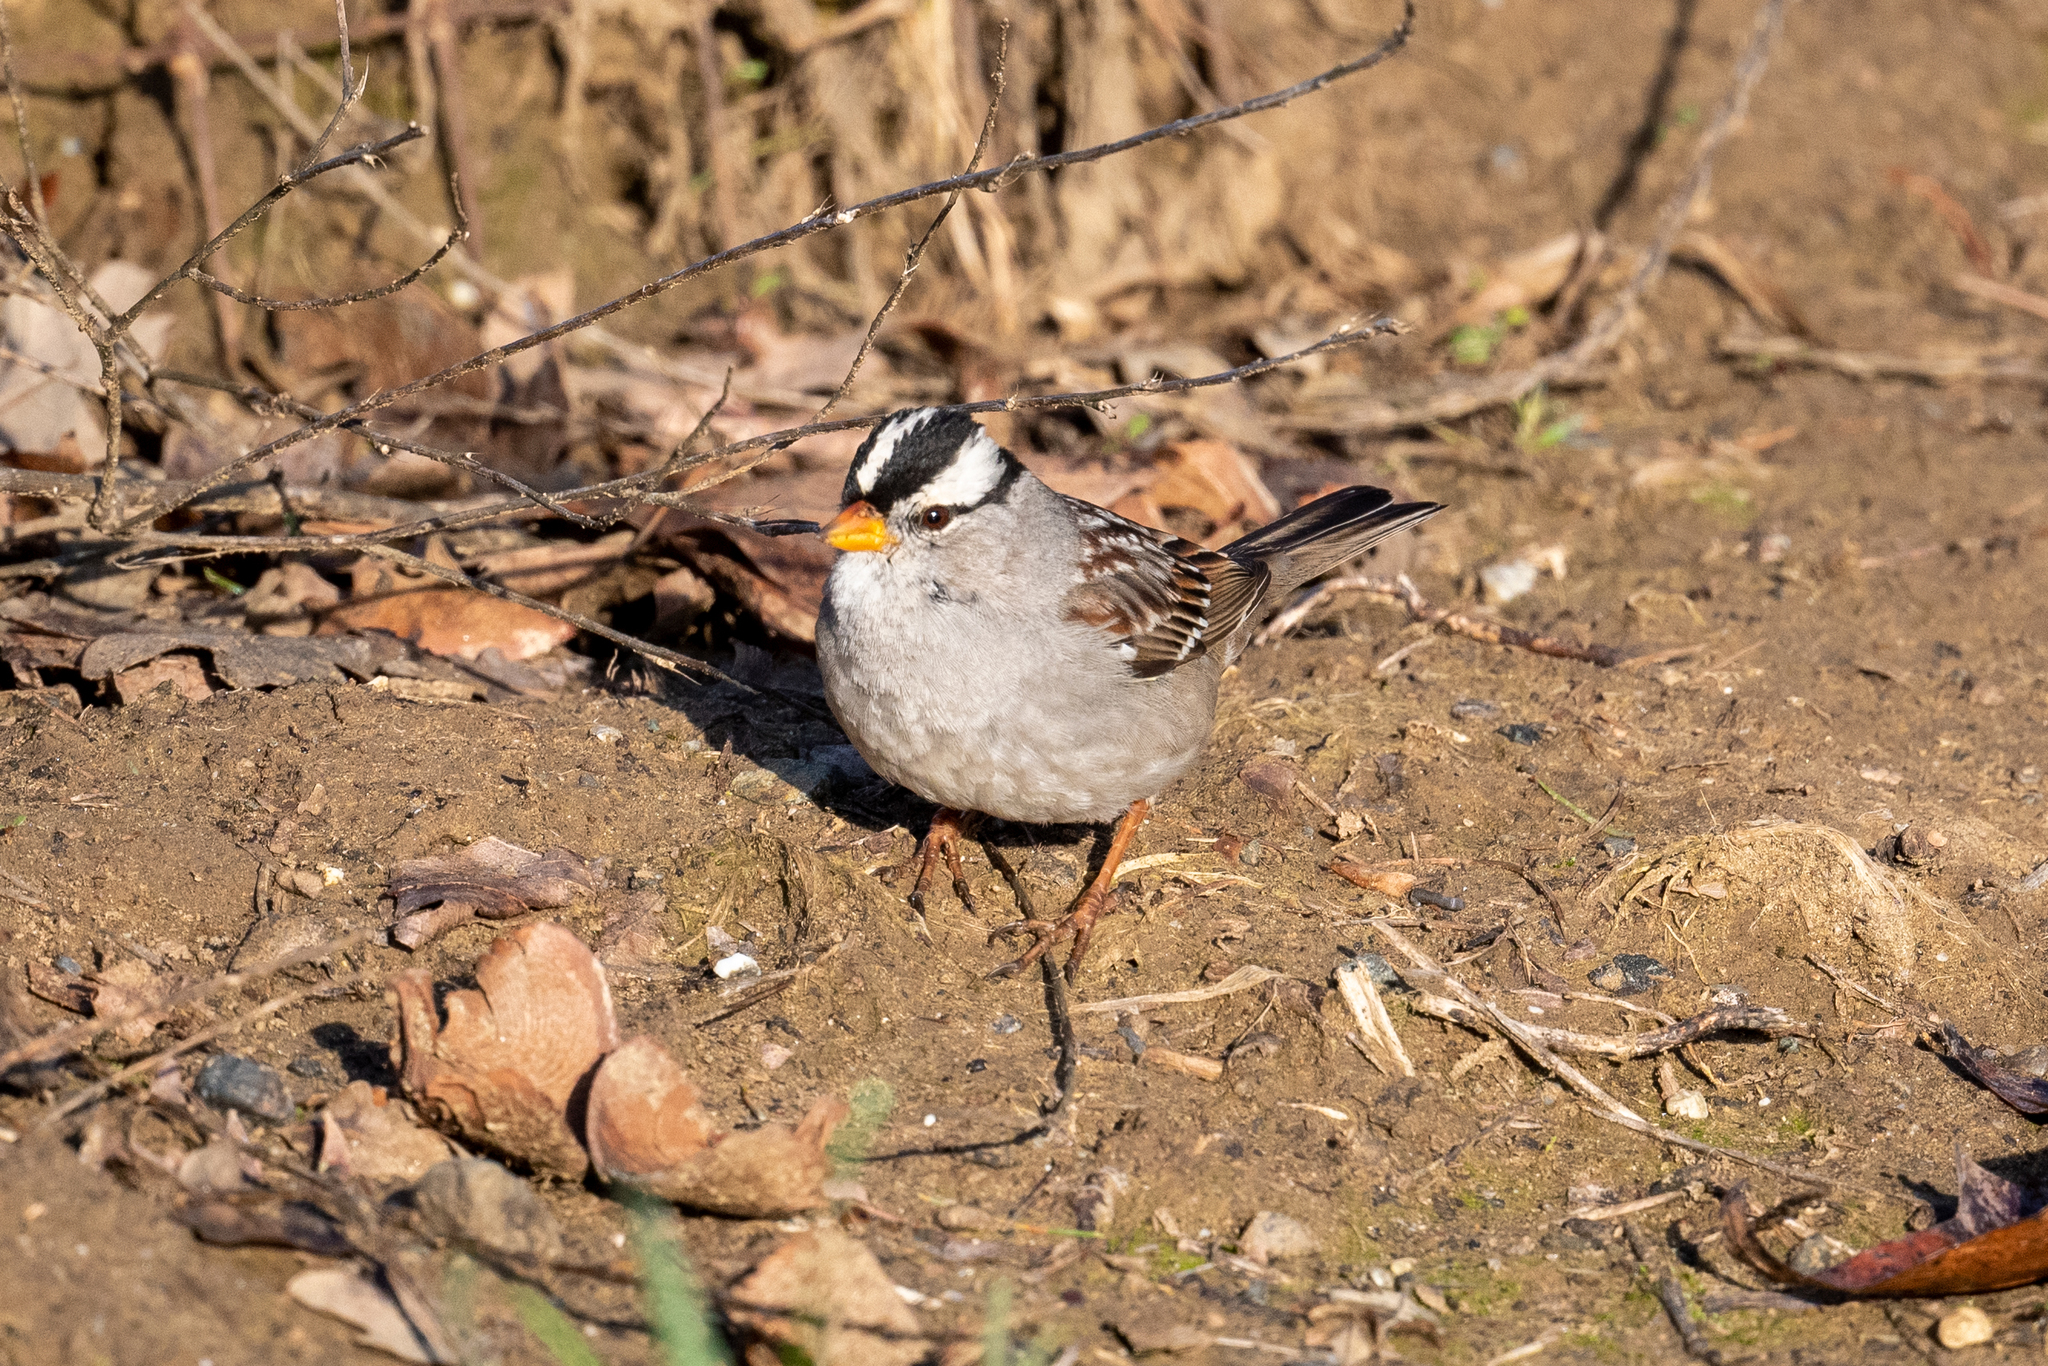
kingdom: Animalia
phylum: Chordata
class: Aves
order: Passeriformes
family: Passerellidae
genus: Zonotrichia
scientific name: Zonotrichia leucophrys
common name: White-crowned sparrow
